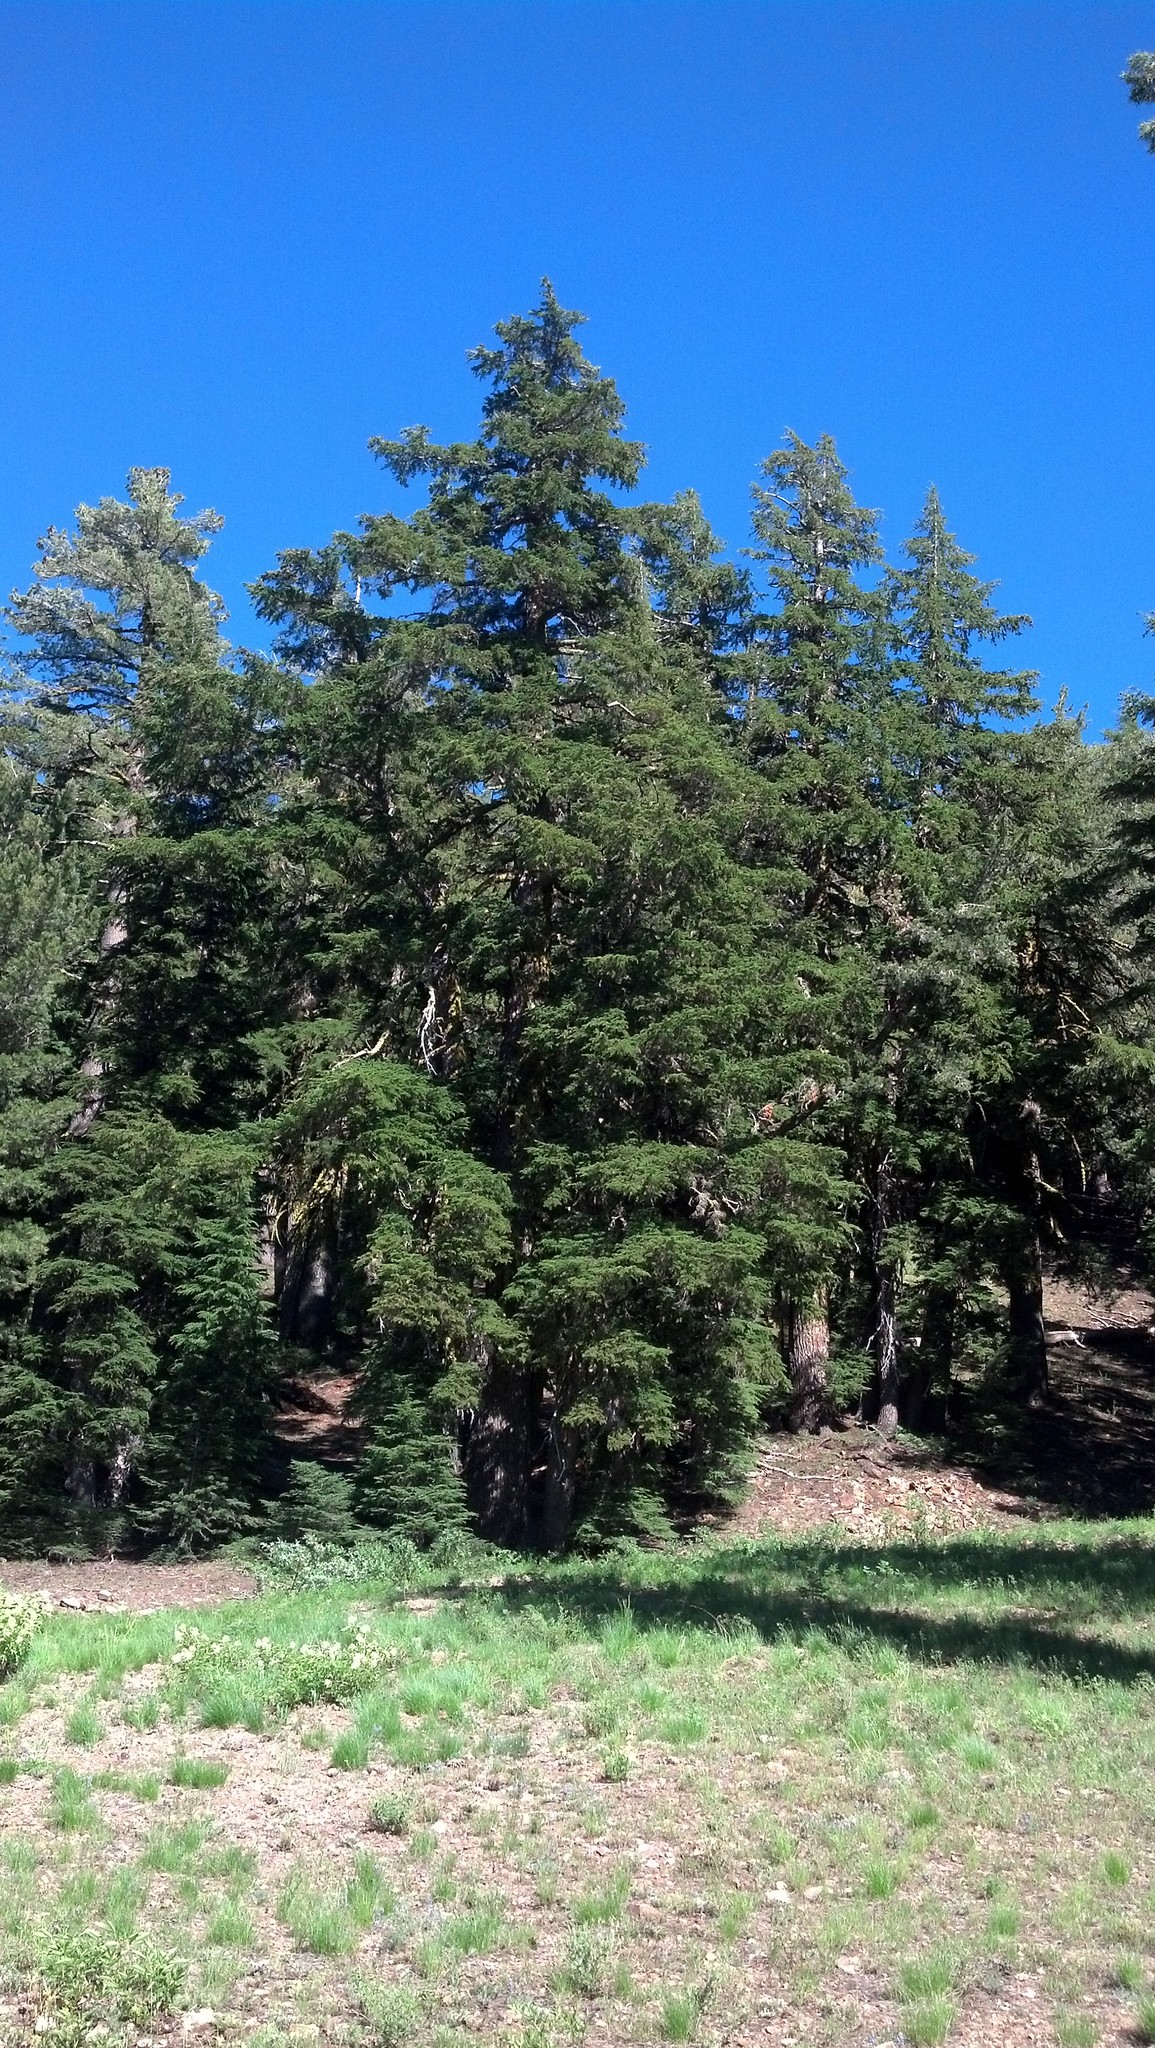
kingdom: Plantae
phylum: Tracheophyta
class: Pinopsida
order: Pinales
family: Pinaceae
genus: Tsuga
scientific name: Tsuga mertensiana
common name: Mountain hemlock
